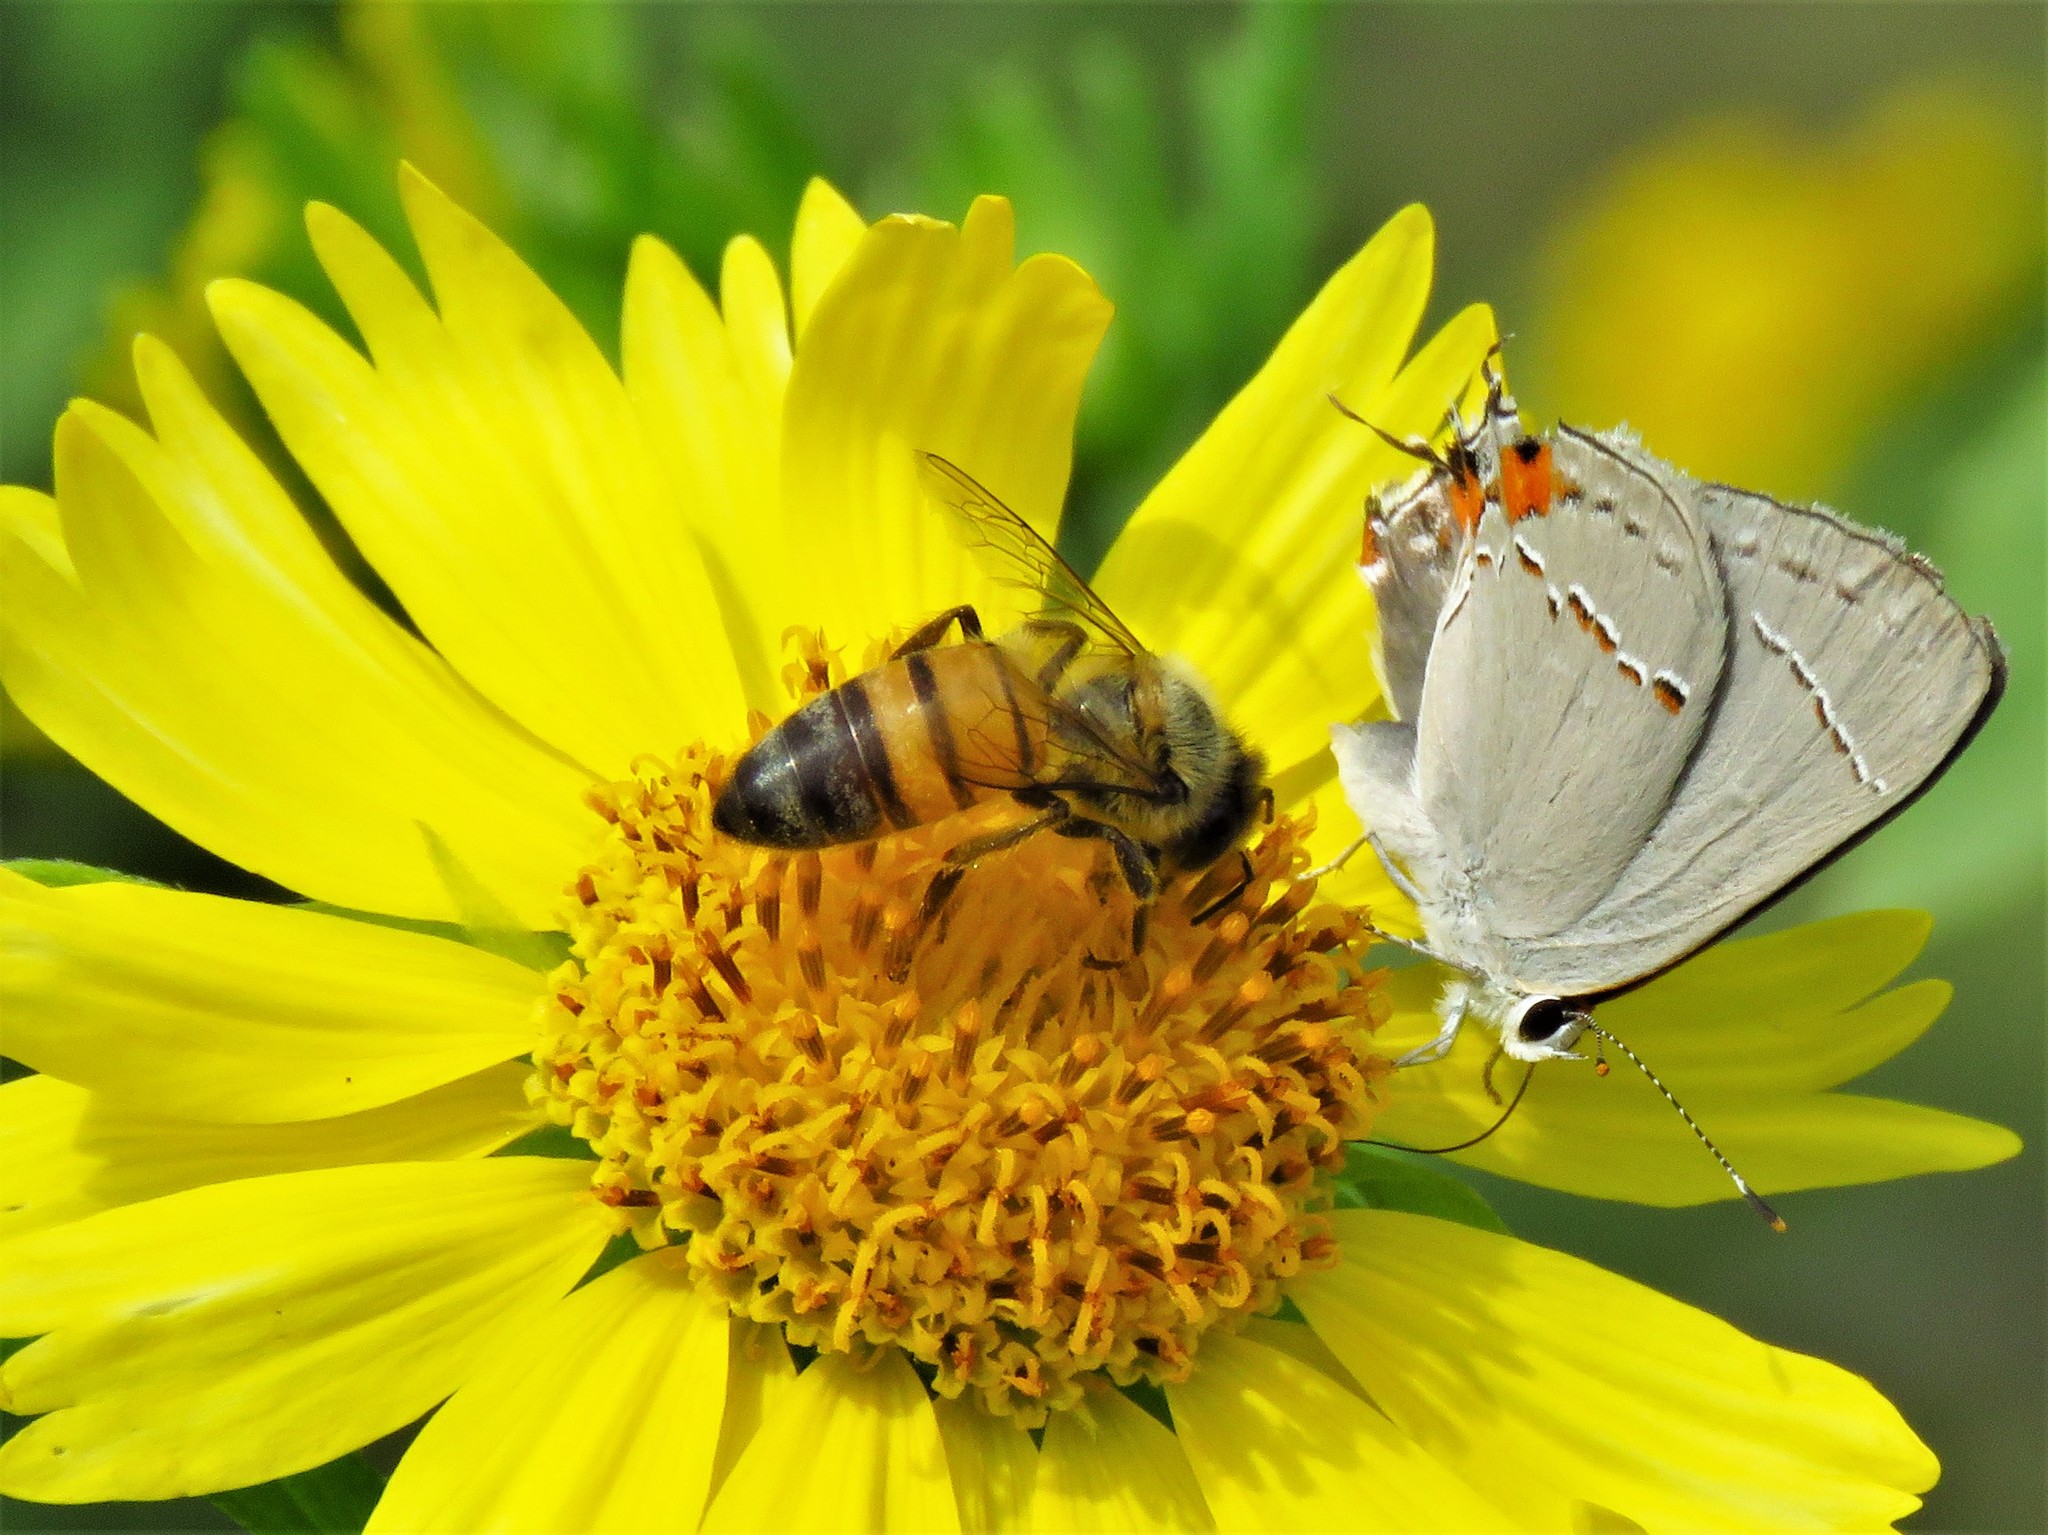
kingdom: Animalia
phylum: Arthropoda
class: Insecta
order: Hymenoptera
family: Apidae
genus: Apis
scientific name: Apis mellifera
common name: Honey bee
